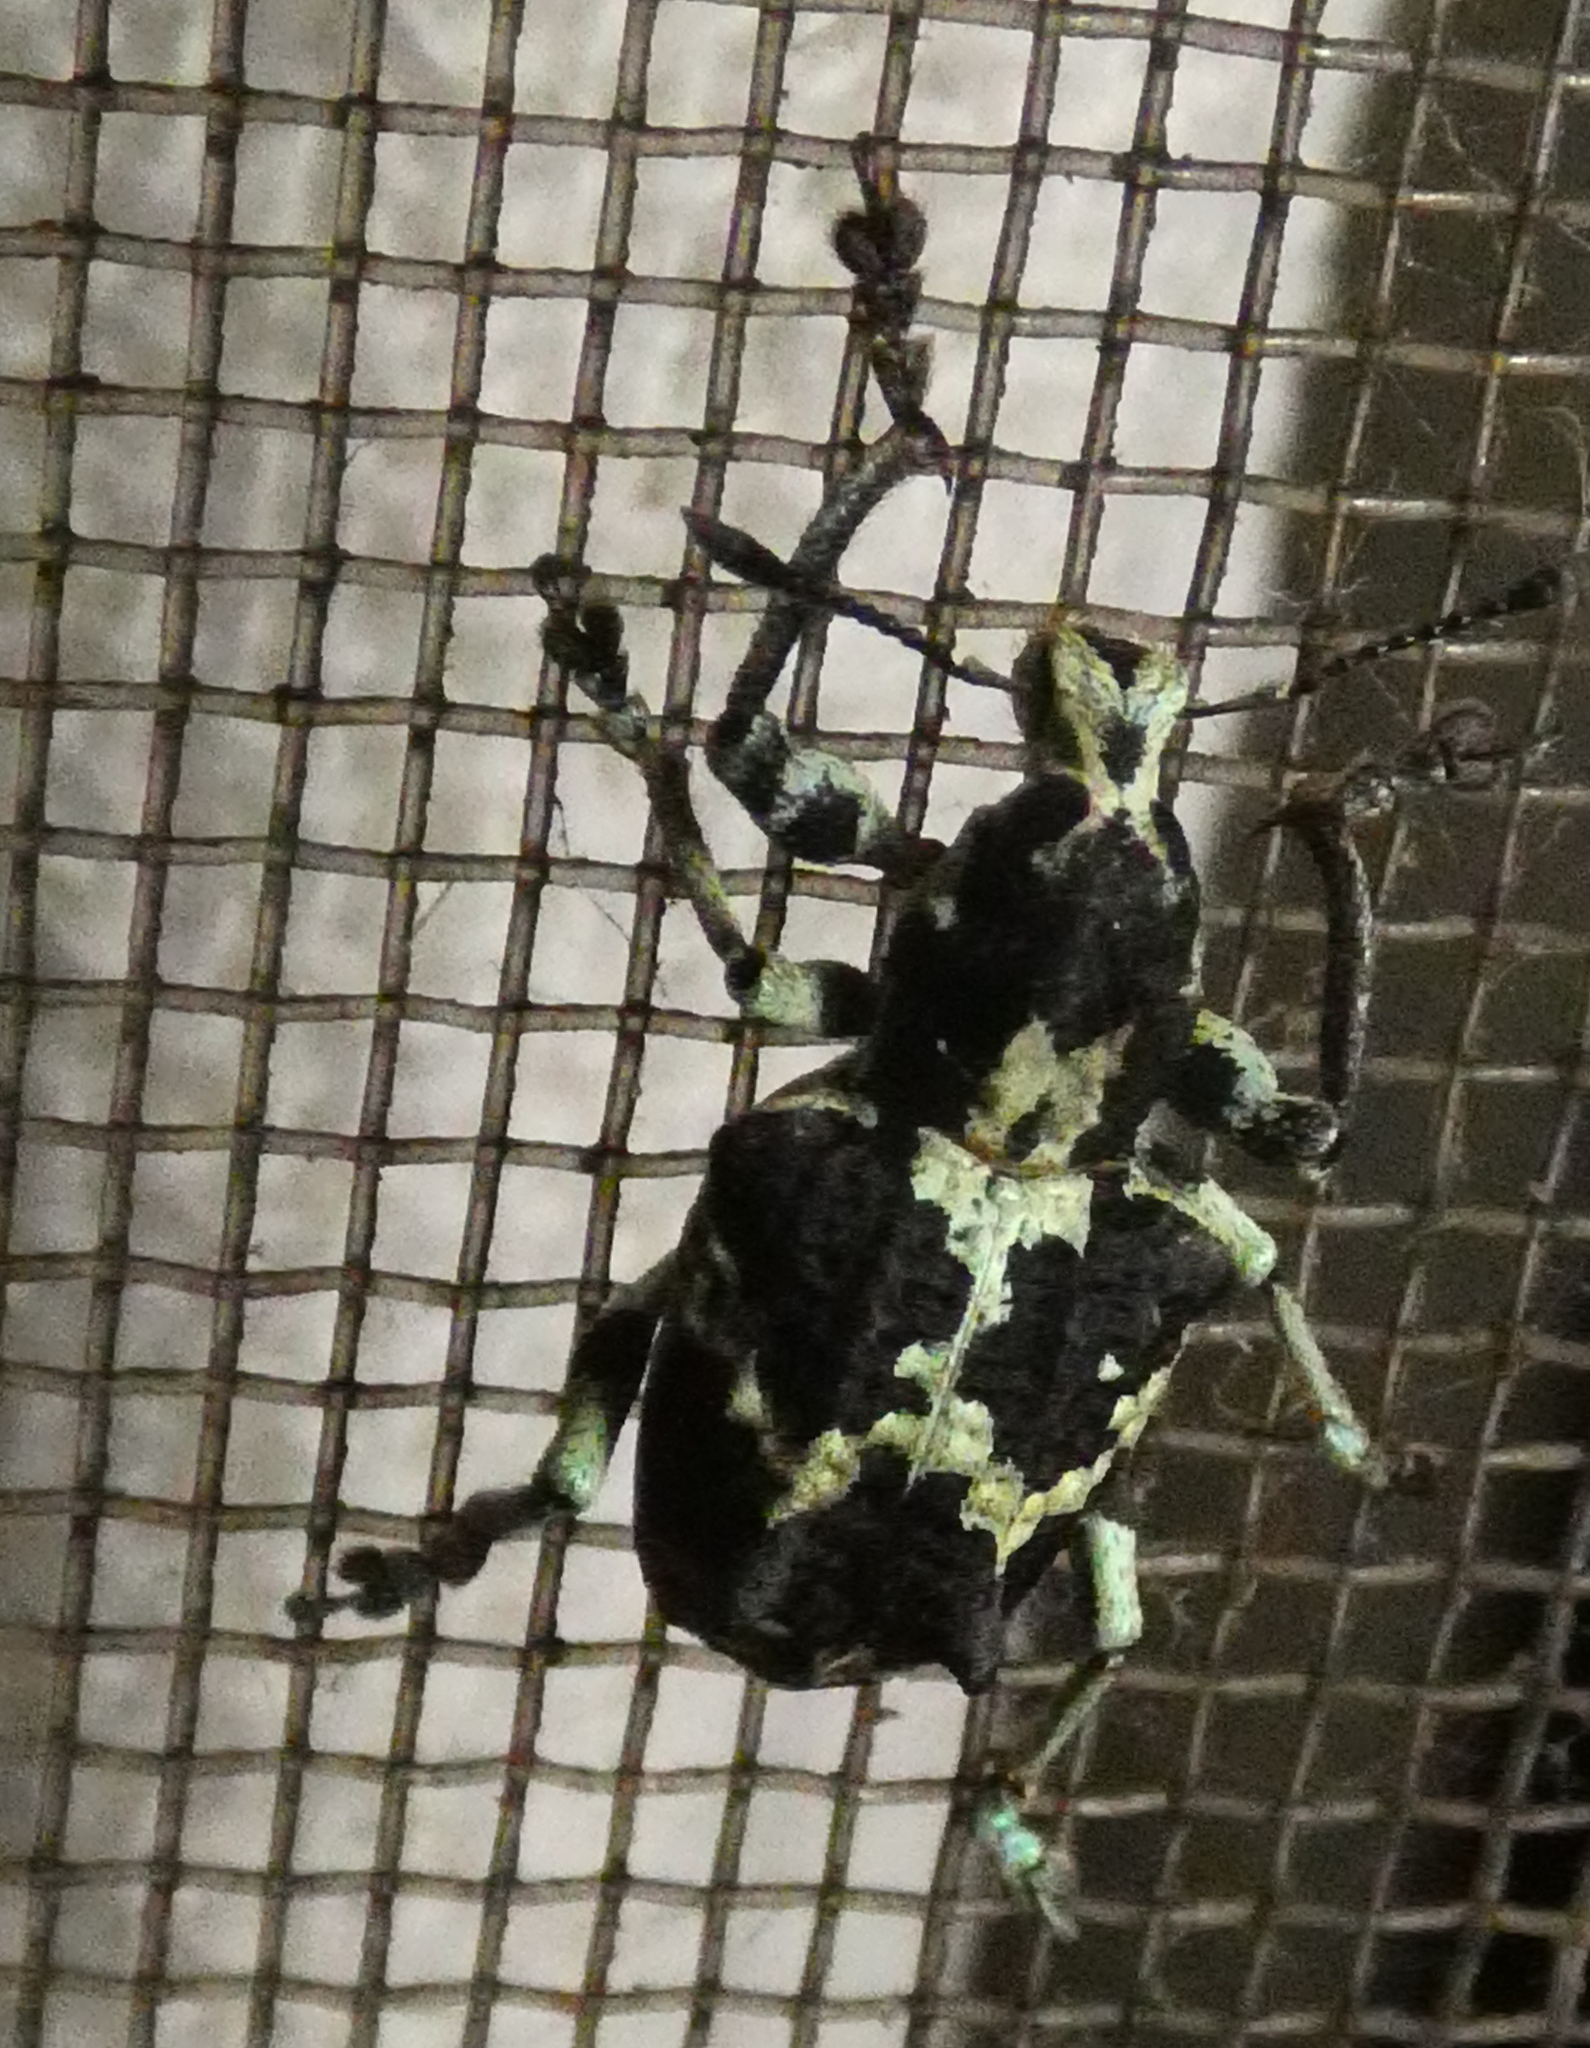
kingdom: Animalia
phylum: Arthropoda
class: Insecta
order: Coleoptera
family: Curculionidae
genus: Rhigus
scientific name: Rhigus dejeanii
